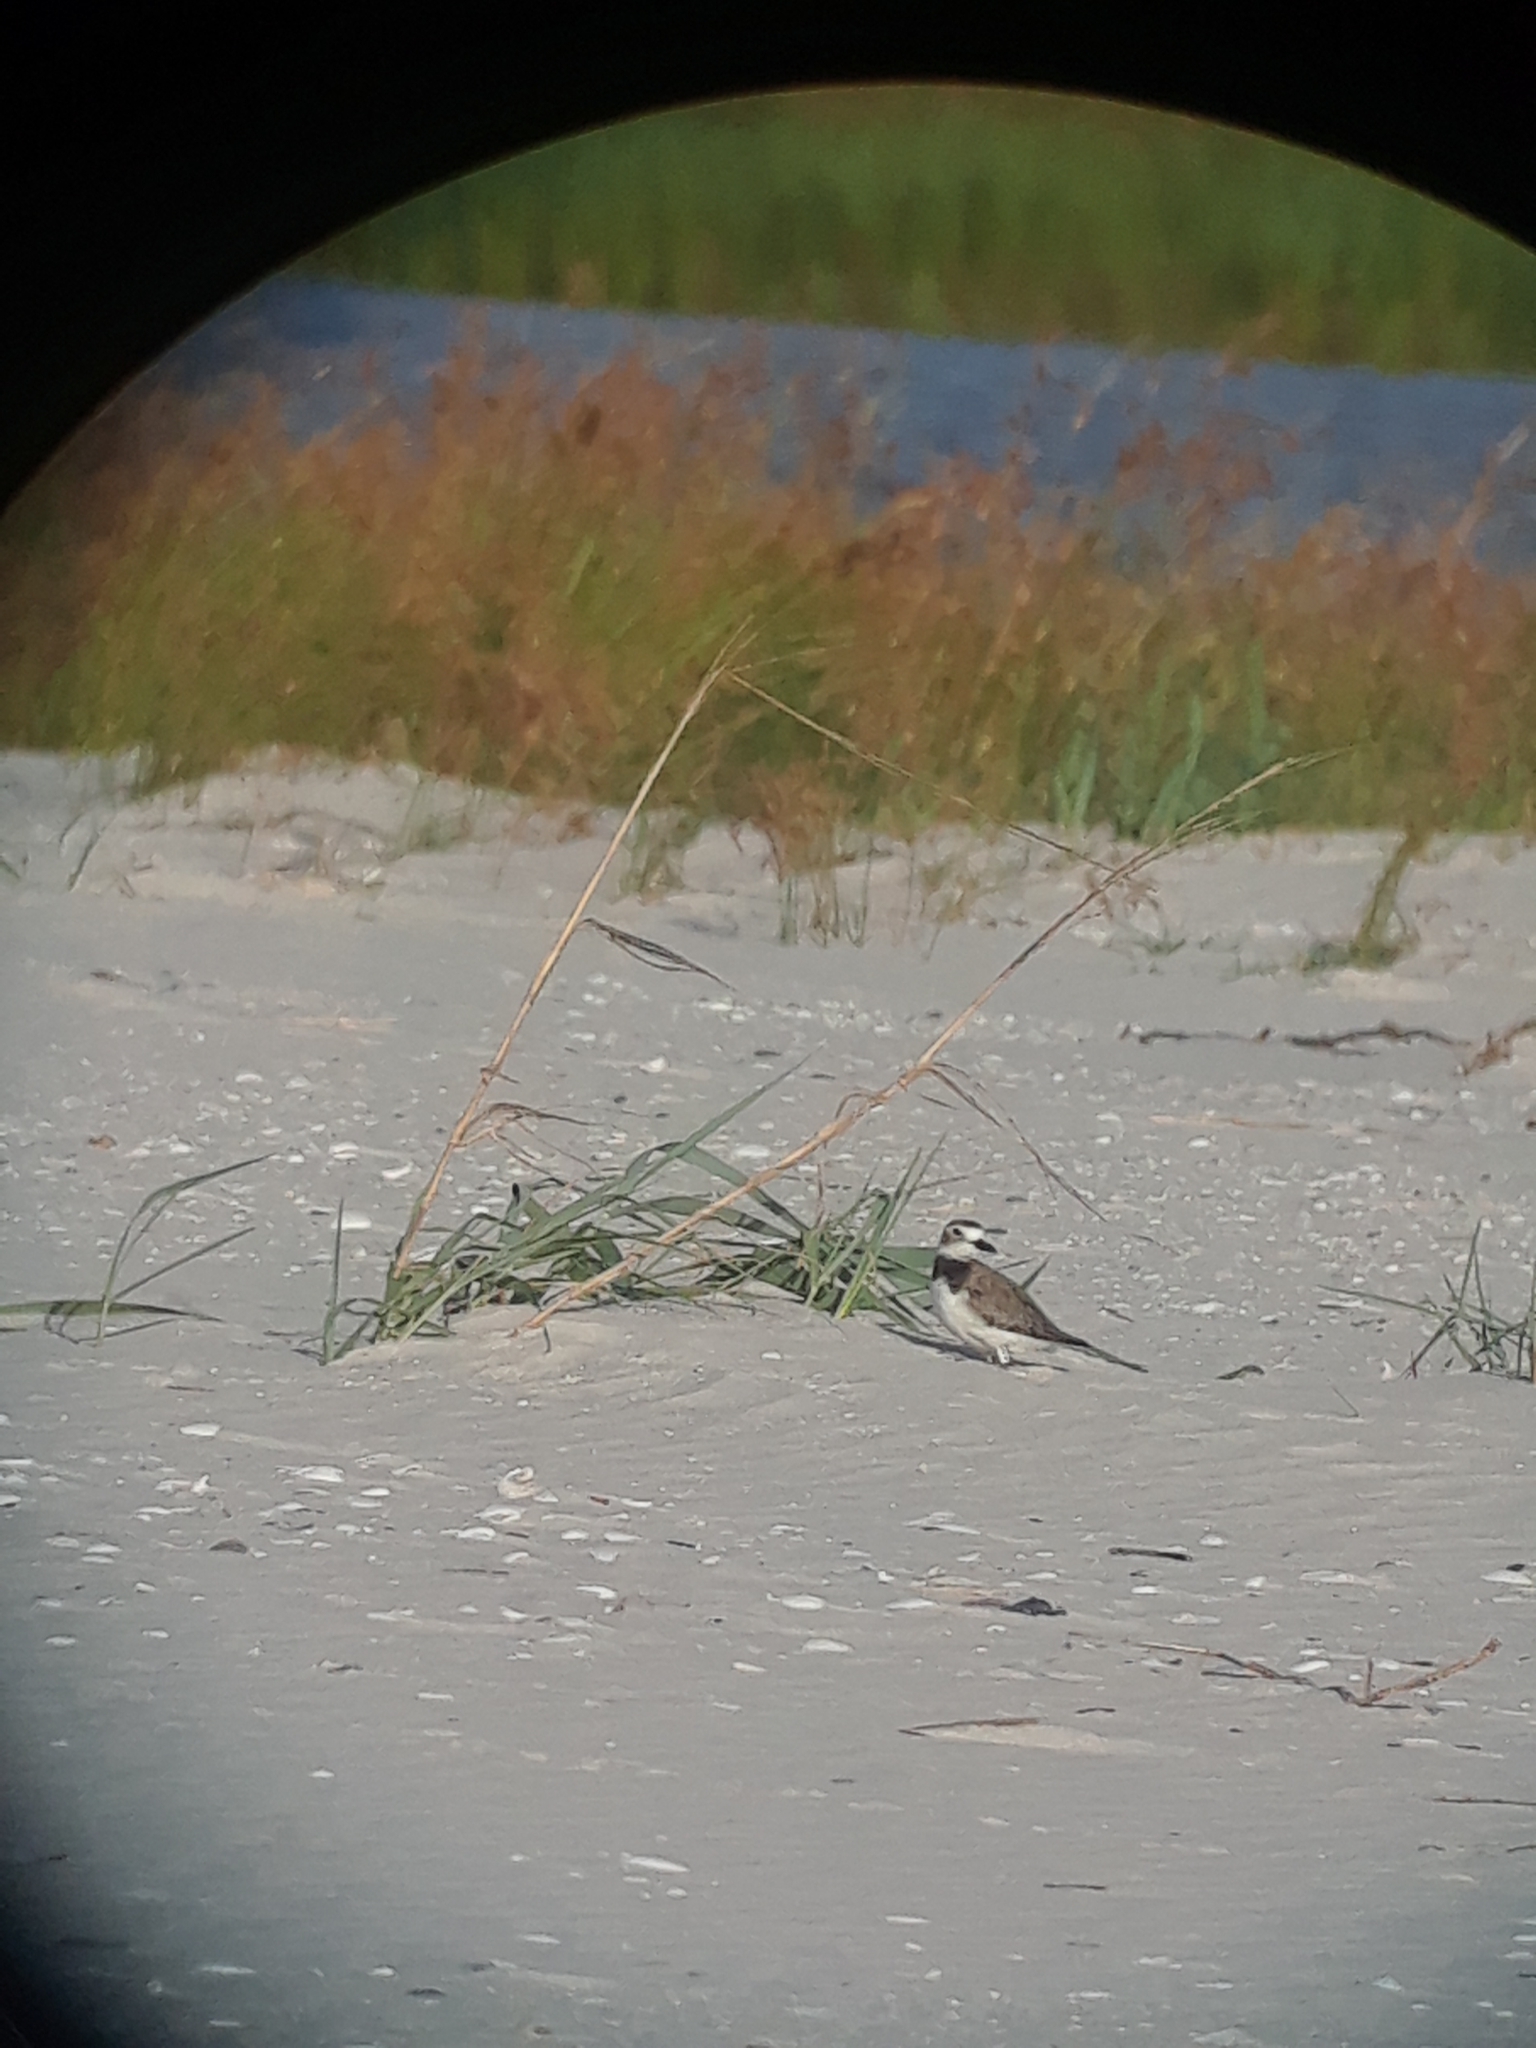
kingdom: Animalia
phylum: Chordata
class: Aves
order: Charadriiformes
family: Charadriidae
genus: Anarhynchus
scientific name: Anarhynchus
